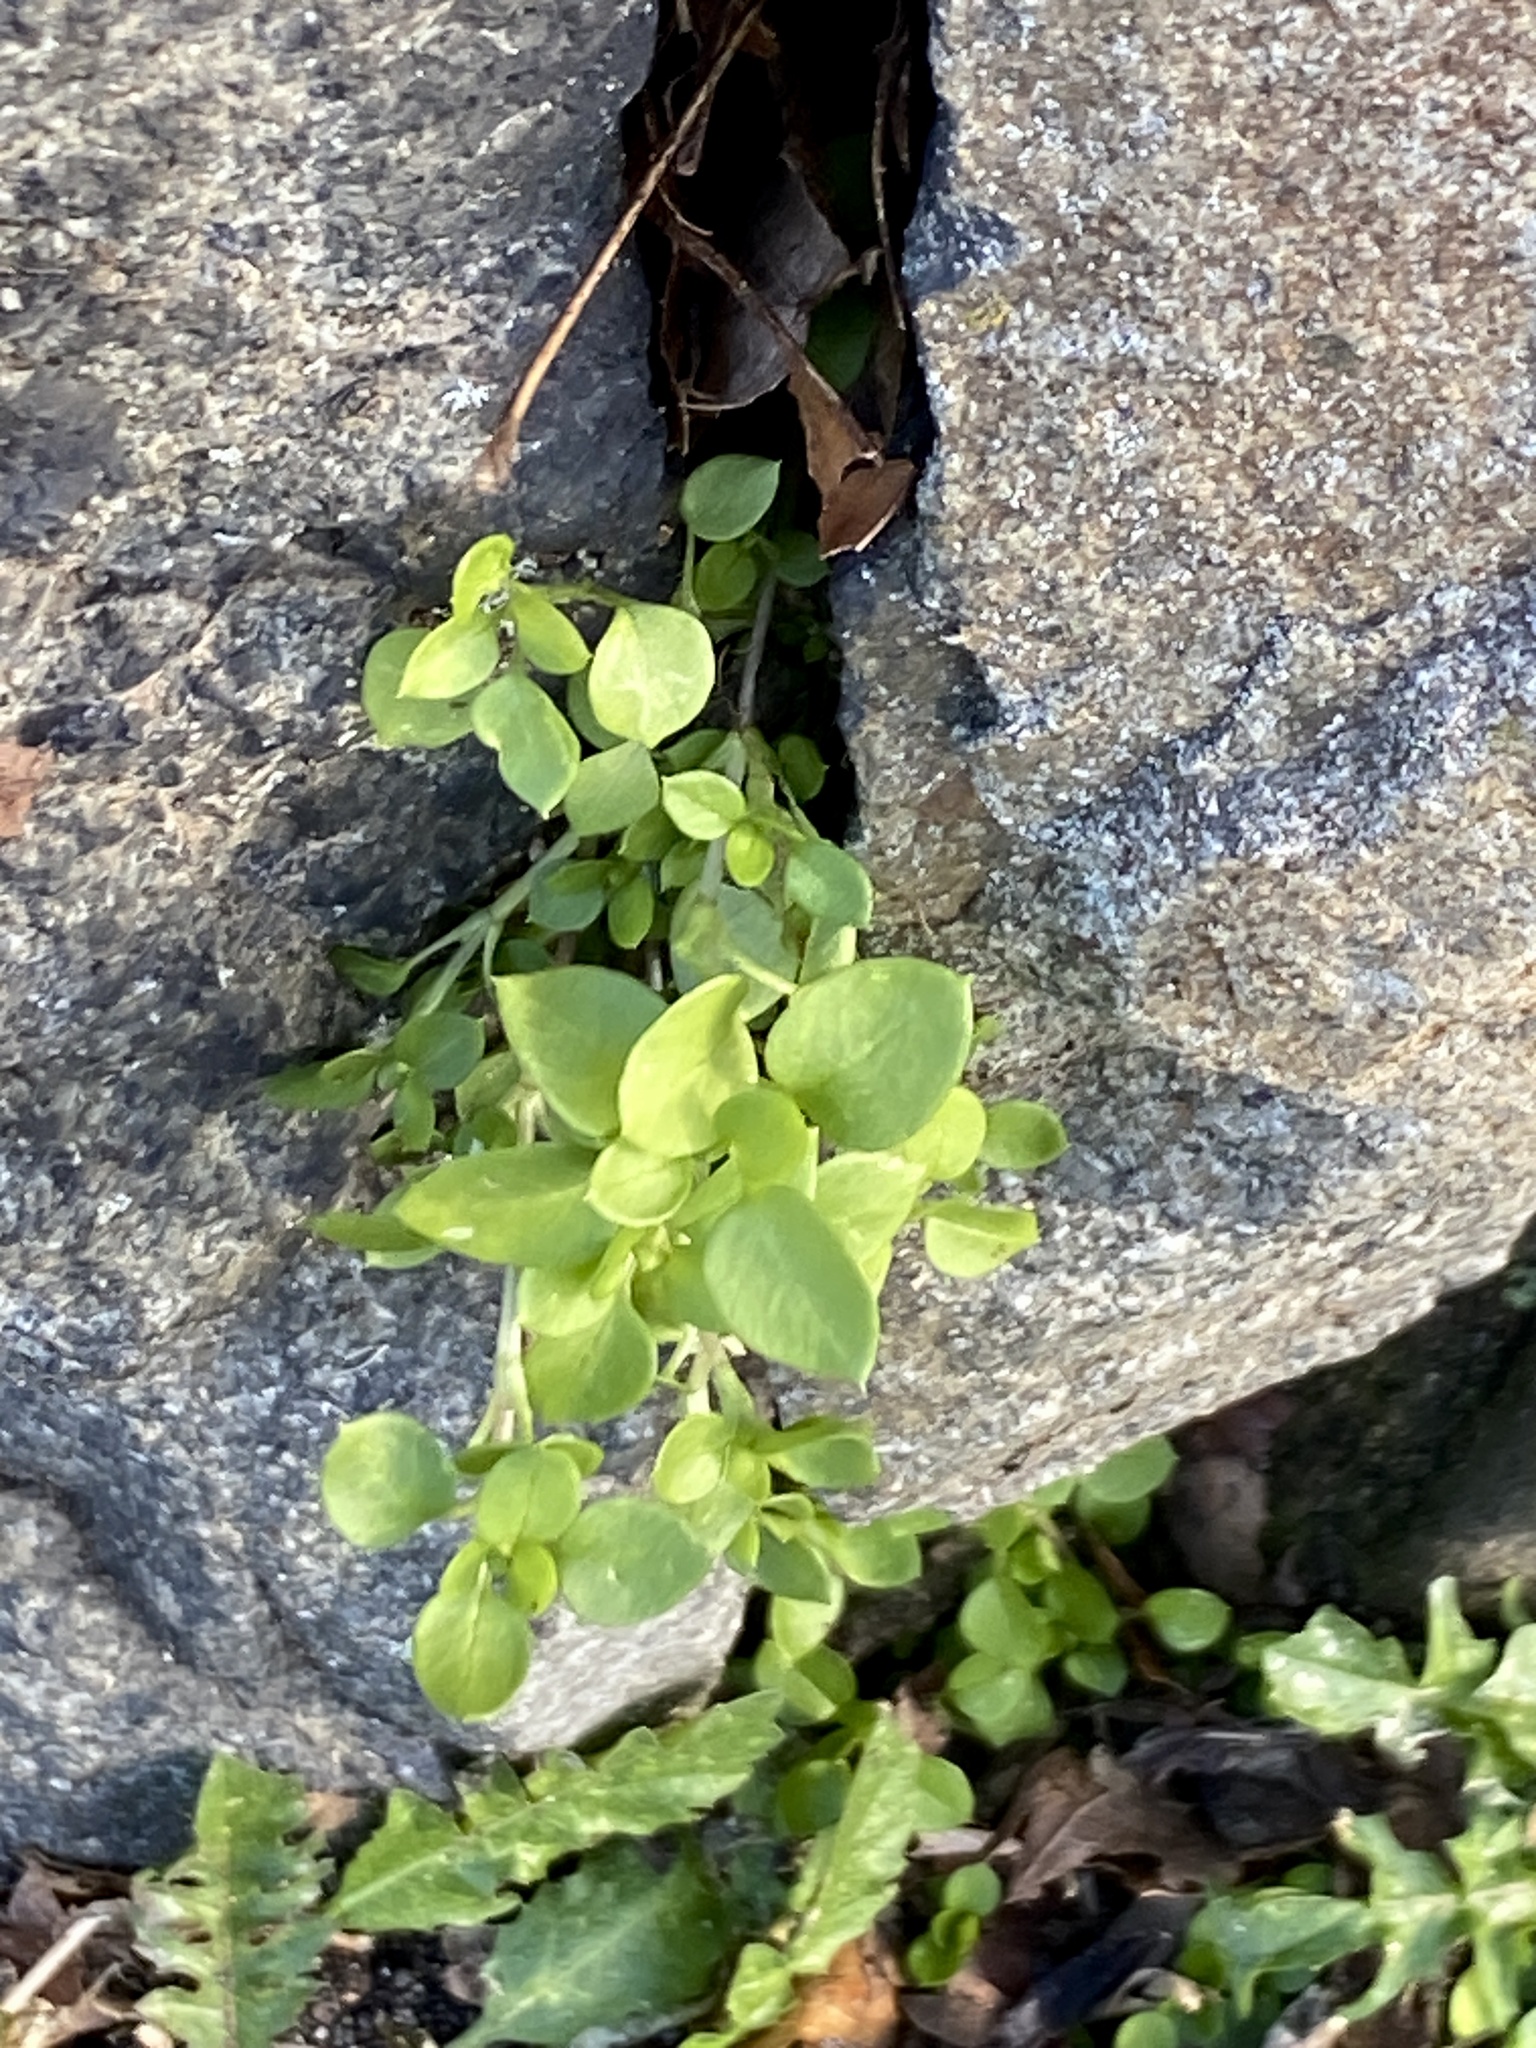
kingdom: Plantae
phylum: Tracheophyta
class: Magnoliopsida
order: Caryophyllales
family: Caryophyllaceae
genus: Stellaria
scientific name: Stellaria media
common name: Common chickweed
